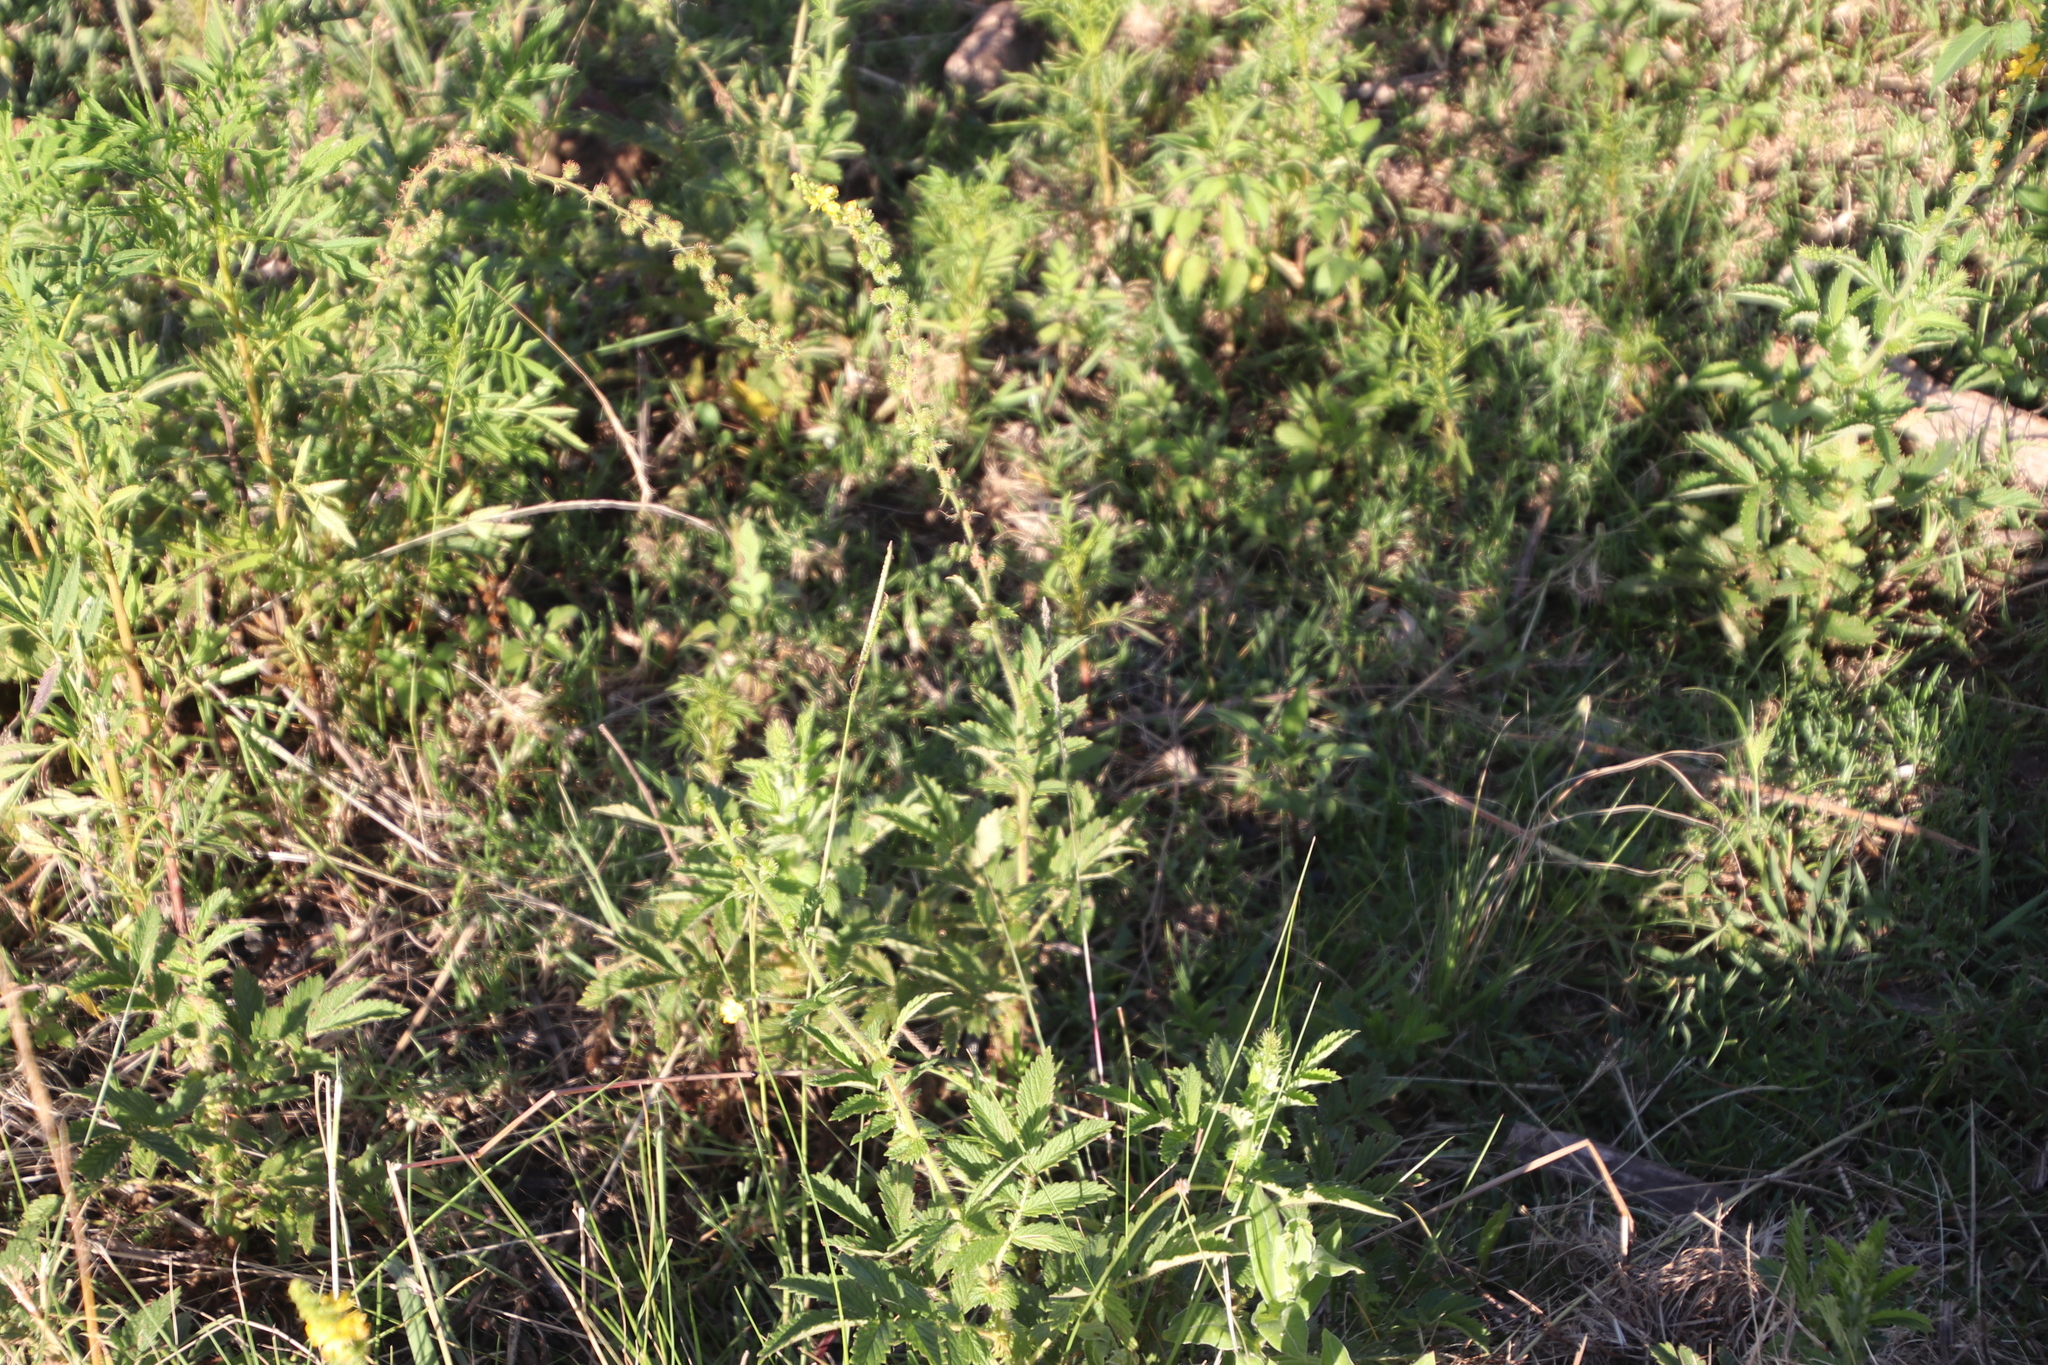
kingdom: Plantae
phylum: Tracheophyta
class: Magnoliopsida
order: Rosales
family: Rosaceae
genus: Agrimonia
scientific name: Agrimonia bracteata
